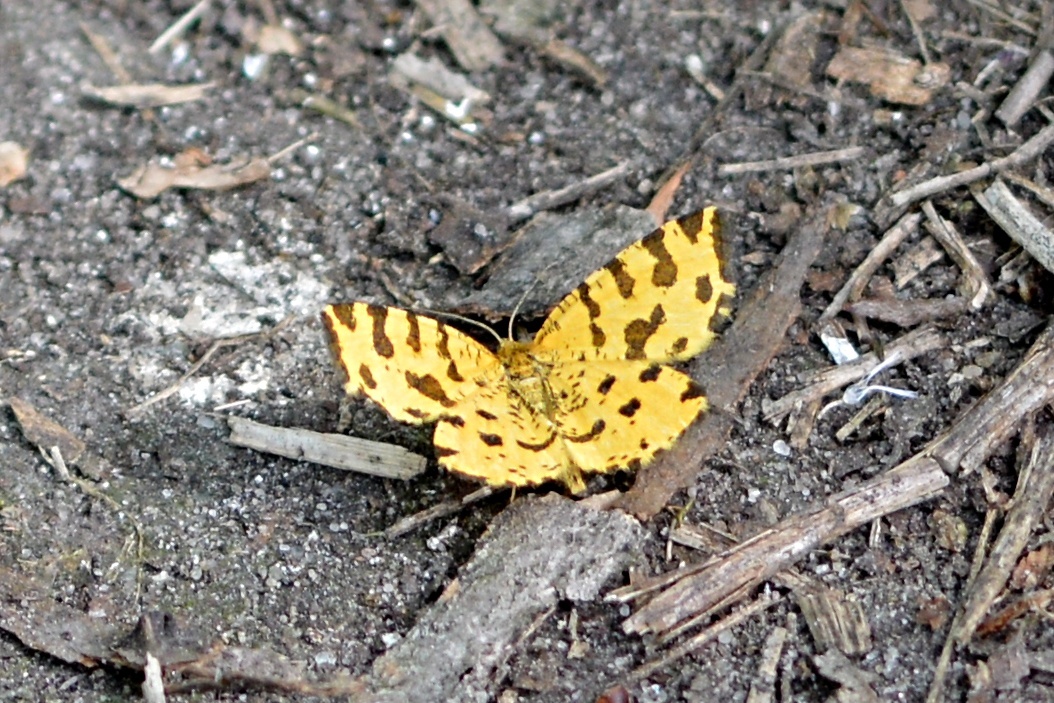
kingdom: Animalia
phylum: Arthropoda
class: Insecta
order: Lepidoptera
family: Geometridae
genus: Pseudopanthera
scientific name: Pseudopanthera macularia
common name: Speckled yellow
